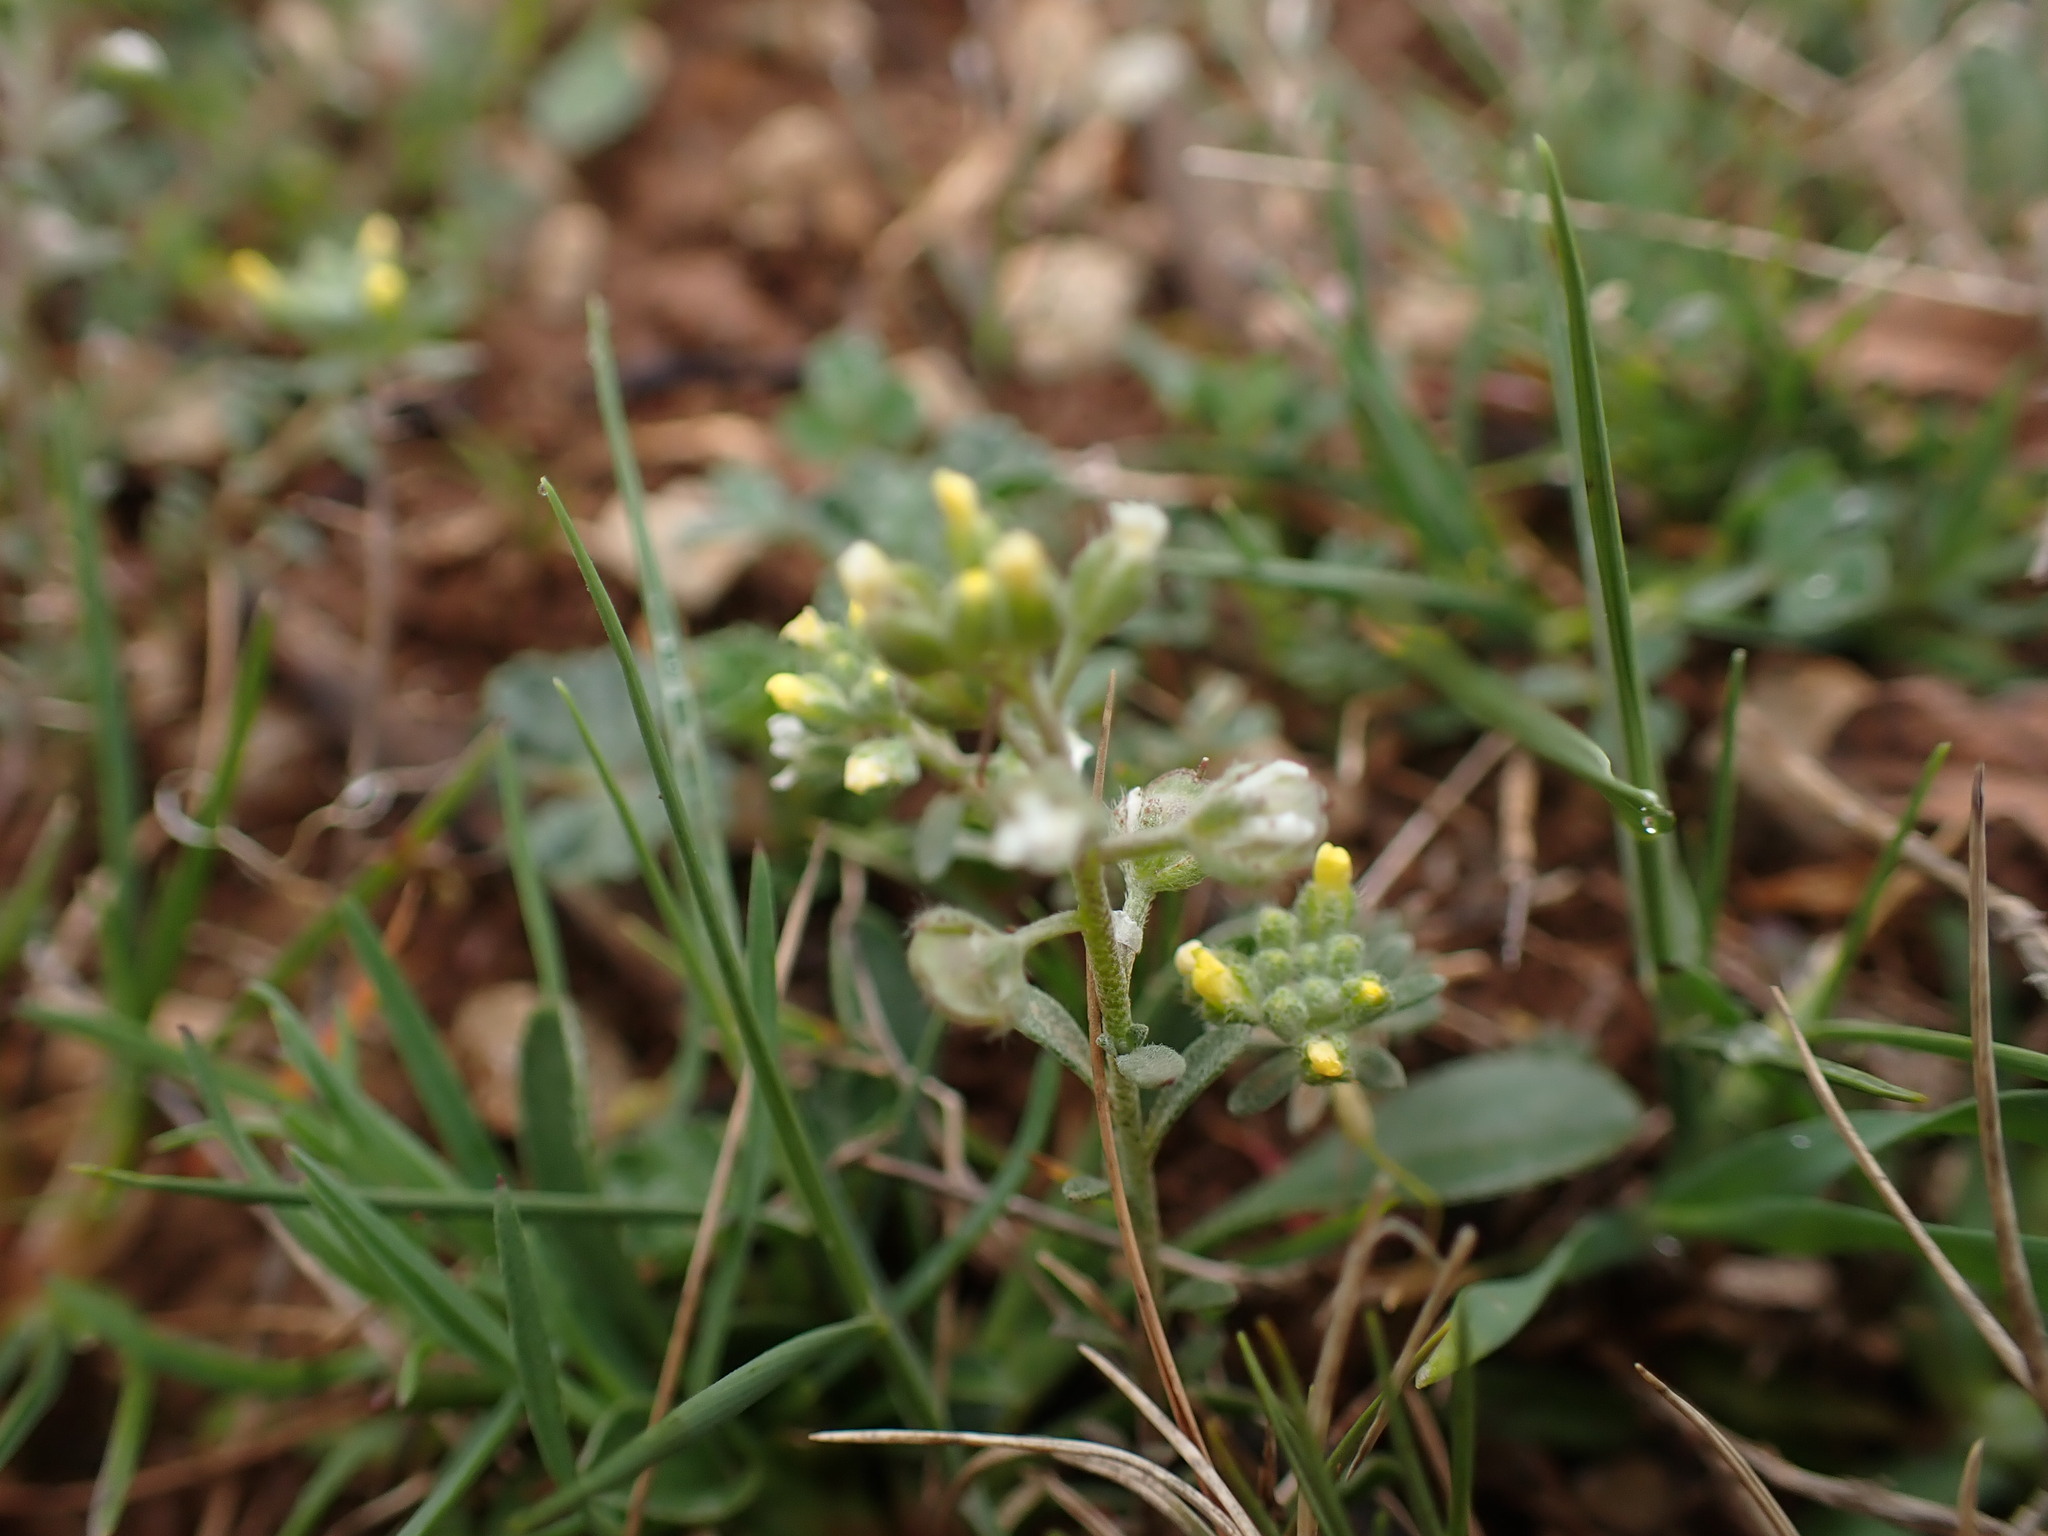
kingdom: Plantae
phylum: Tracheophyta
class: Magnoliopsida
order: Brassicales
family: Brassicaceae
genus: Alyssum
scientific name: Alyssum alyssoides
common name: Small alison
